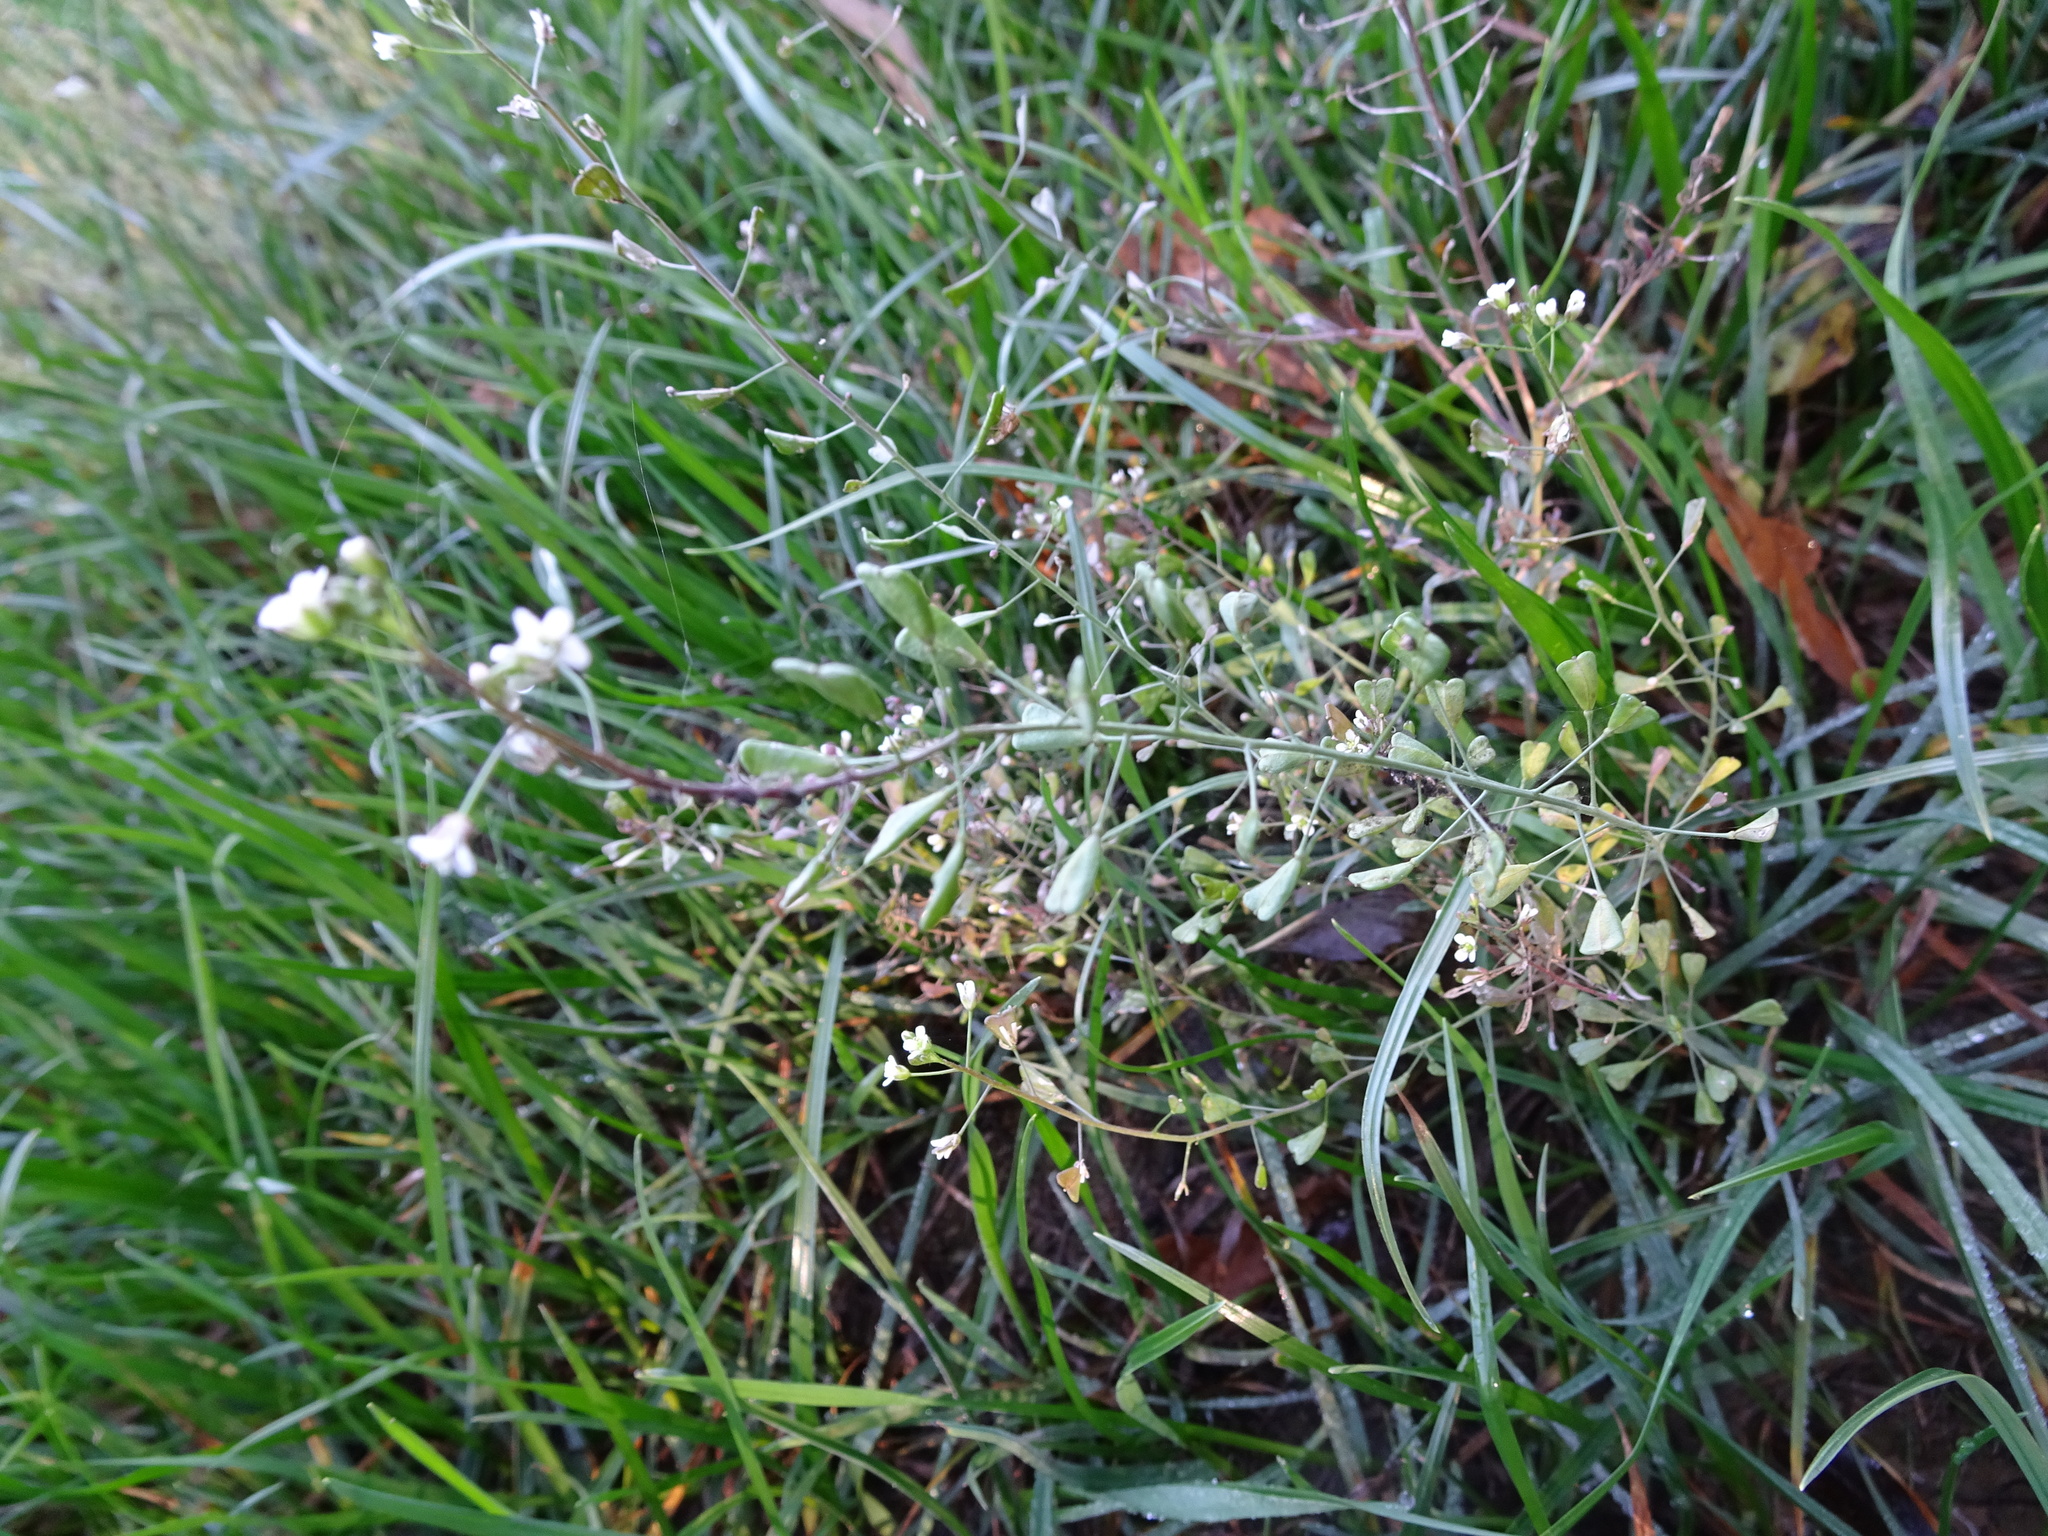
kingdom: Plantae
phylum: Tracheophyta
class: Magnoliopsida
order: Brassicales
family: Brassicaceae
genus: Capsella
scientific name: Capsella bursa-pastoris
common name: Shepherd's purse
